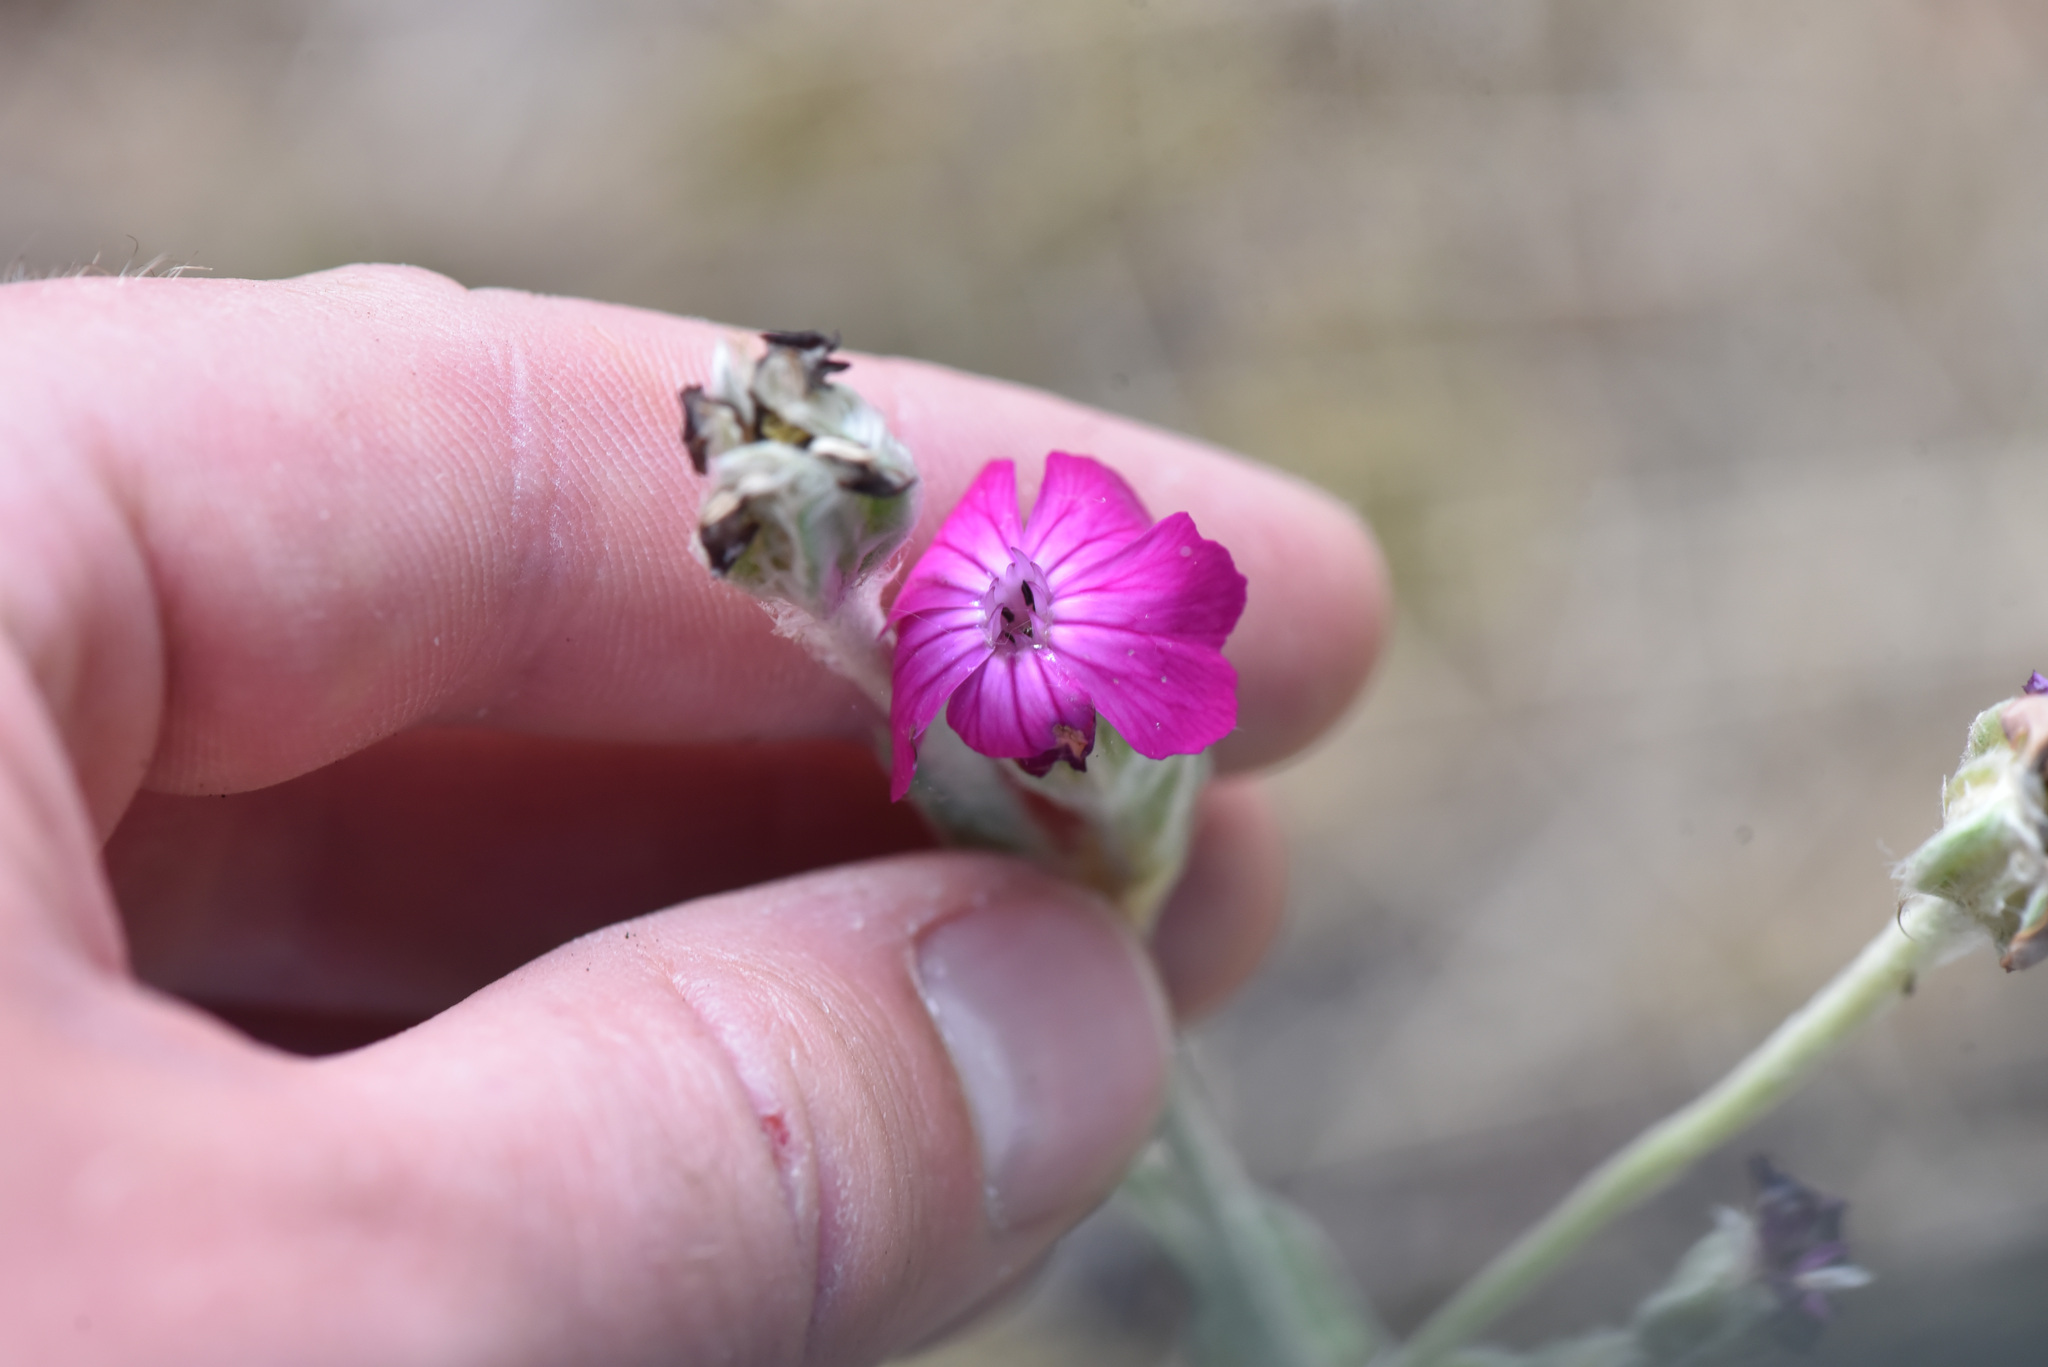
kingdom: Plantae
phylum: Tracheophyta
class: Magnoliopsida
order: Caryophyllales
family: Caryophyllaceae
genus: Silene
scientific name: Silene coronaria
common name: Rose campion
